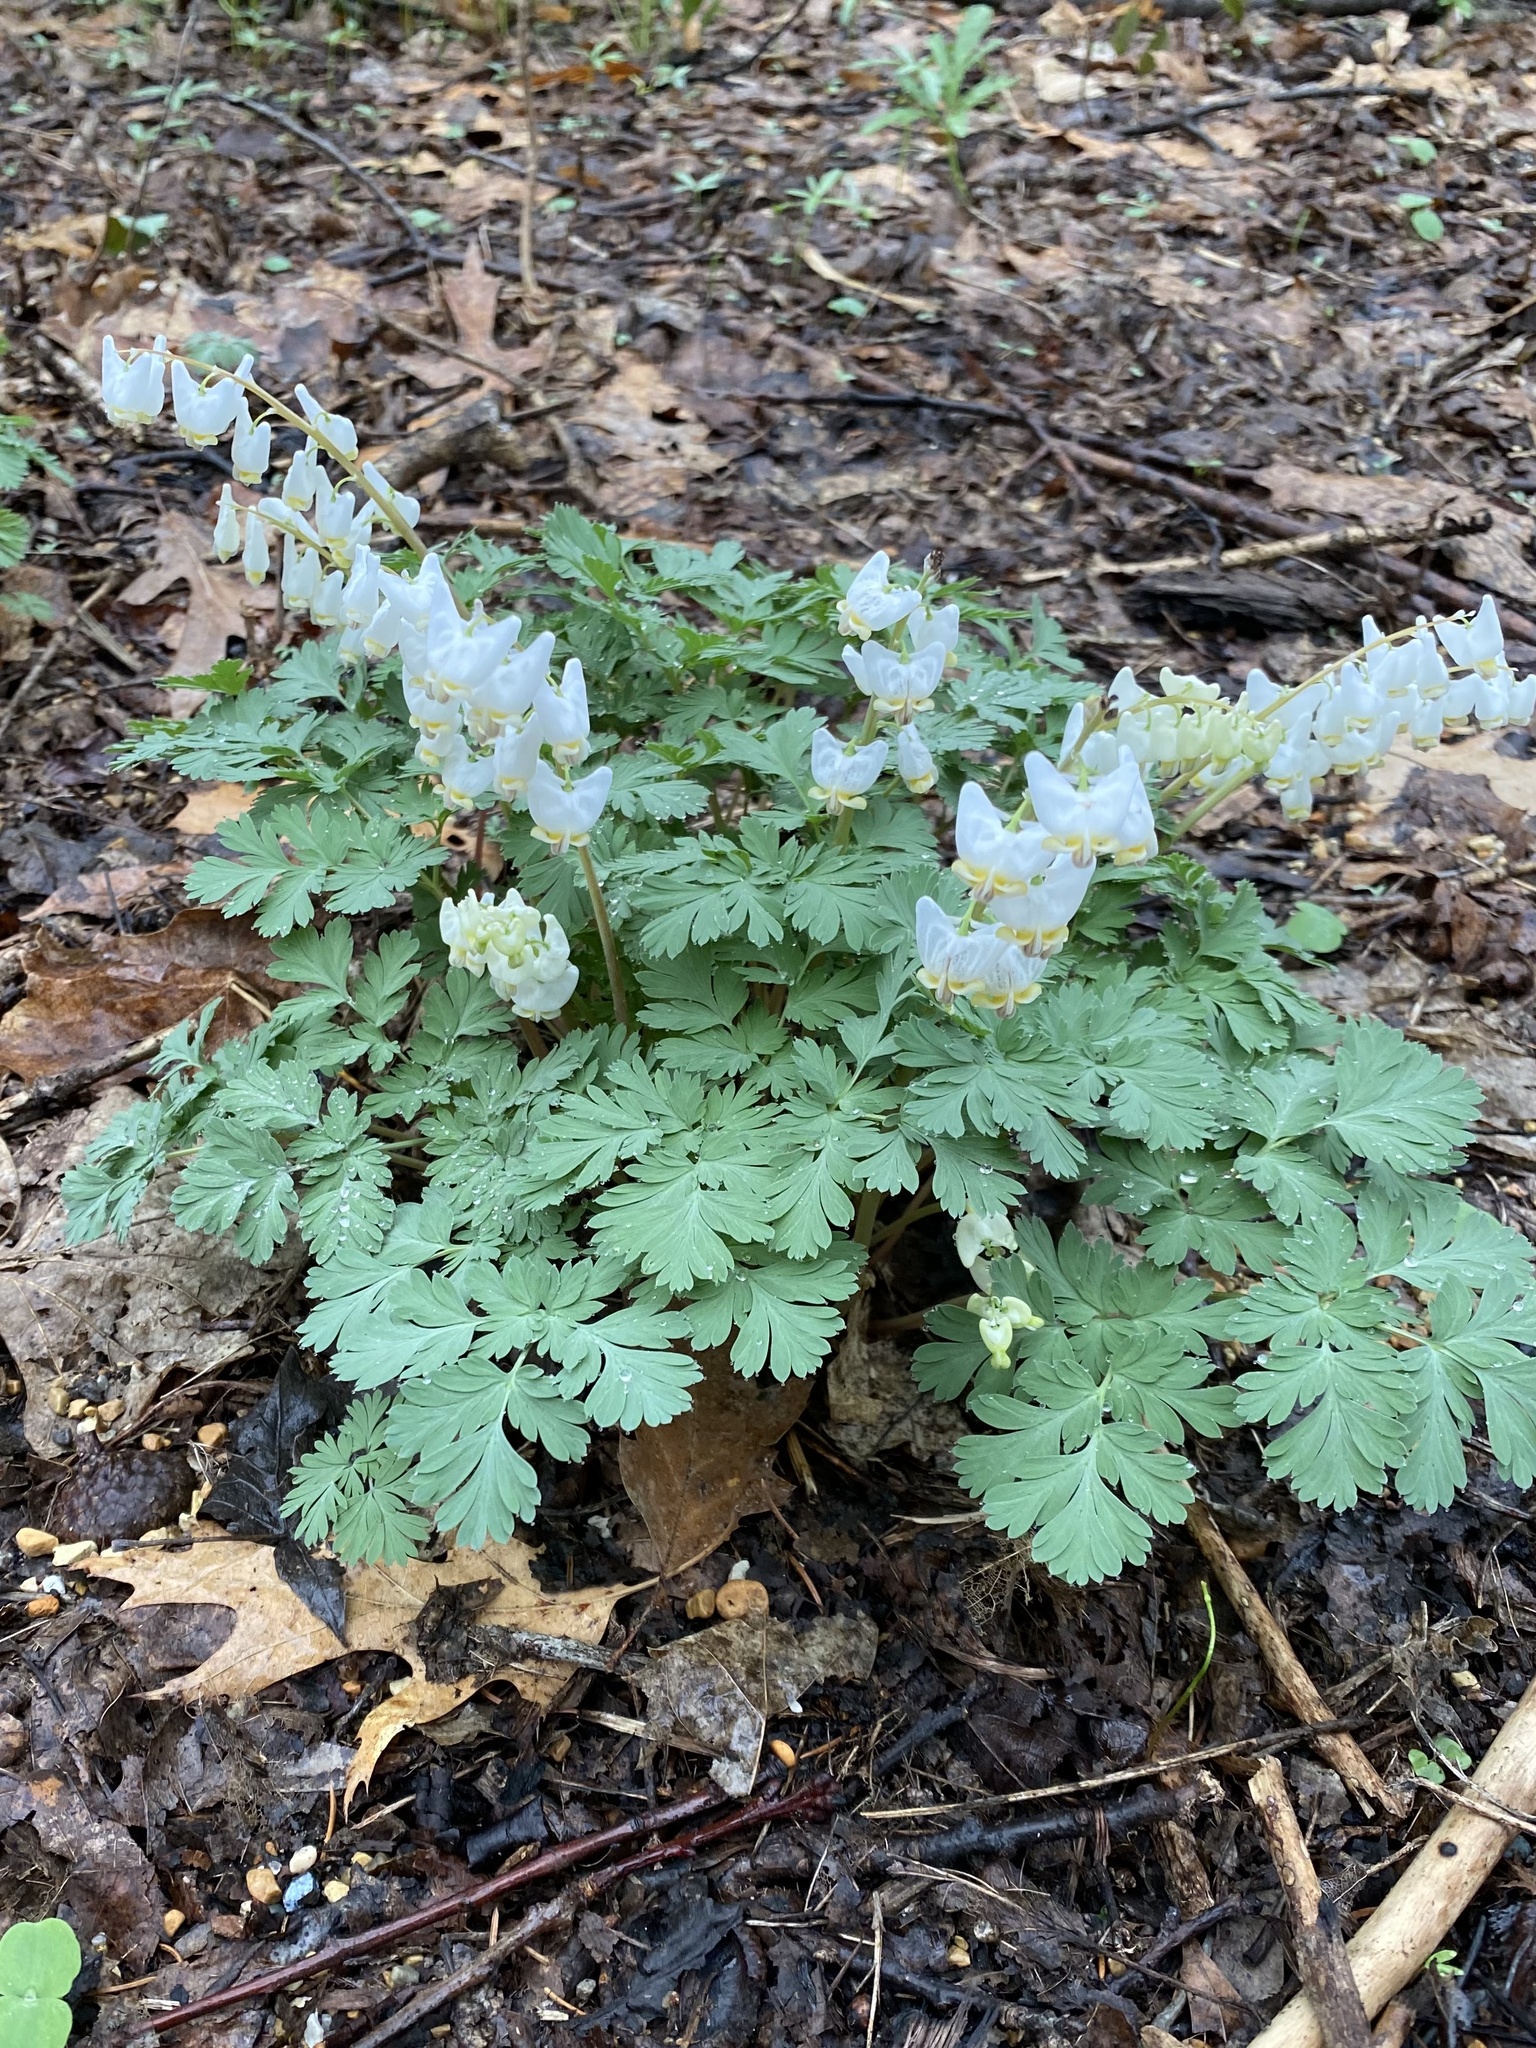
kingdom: Plantae
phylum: Tracheophyta
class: Magnoliopsida
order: Ranunculales
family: Papaveraceae
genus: Dicentra
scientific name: Dicentra cucullaria
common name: Dutchman's breeches
